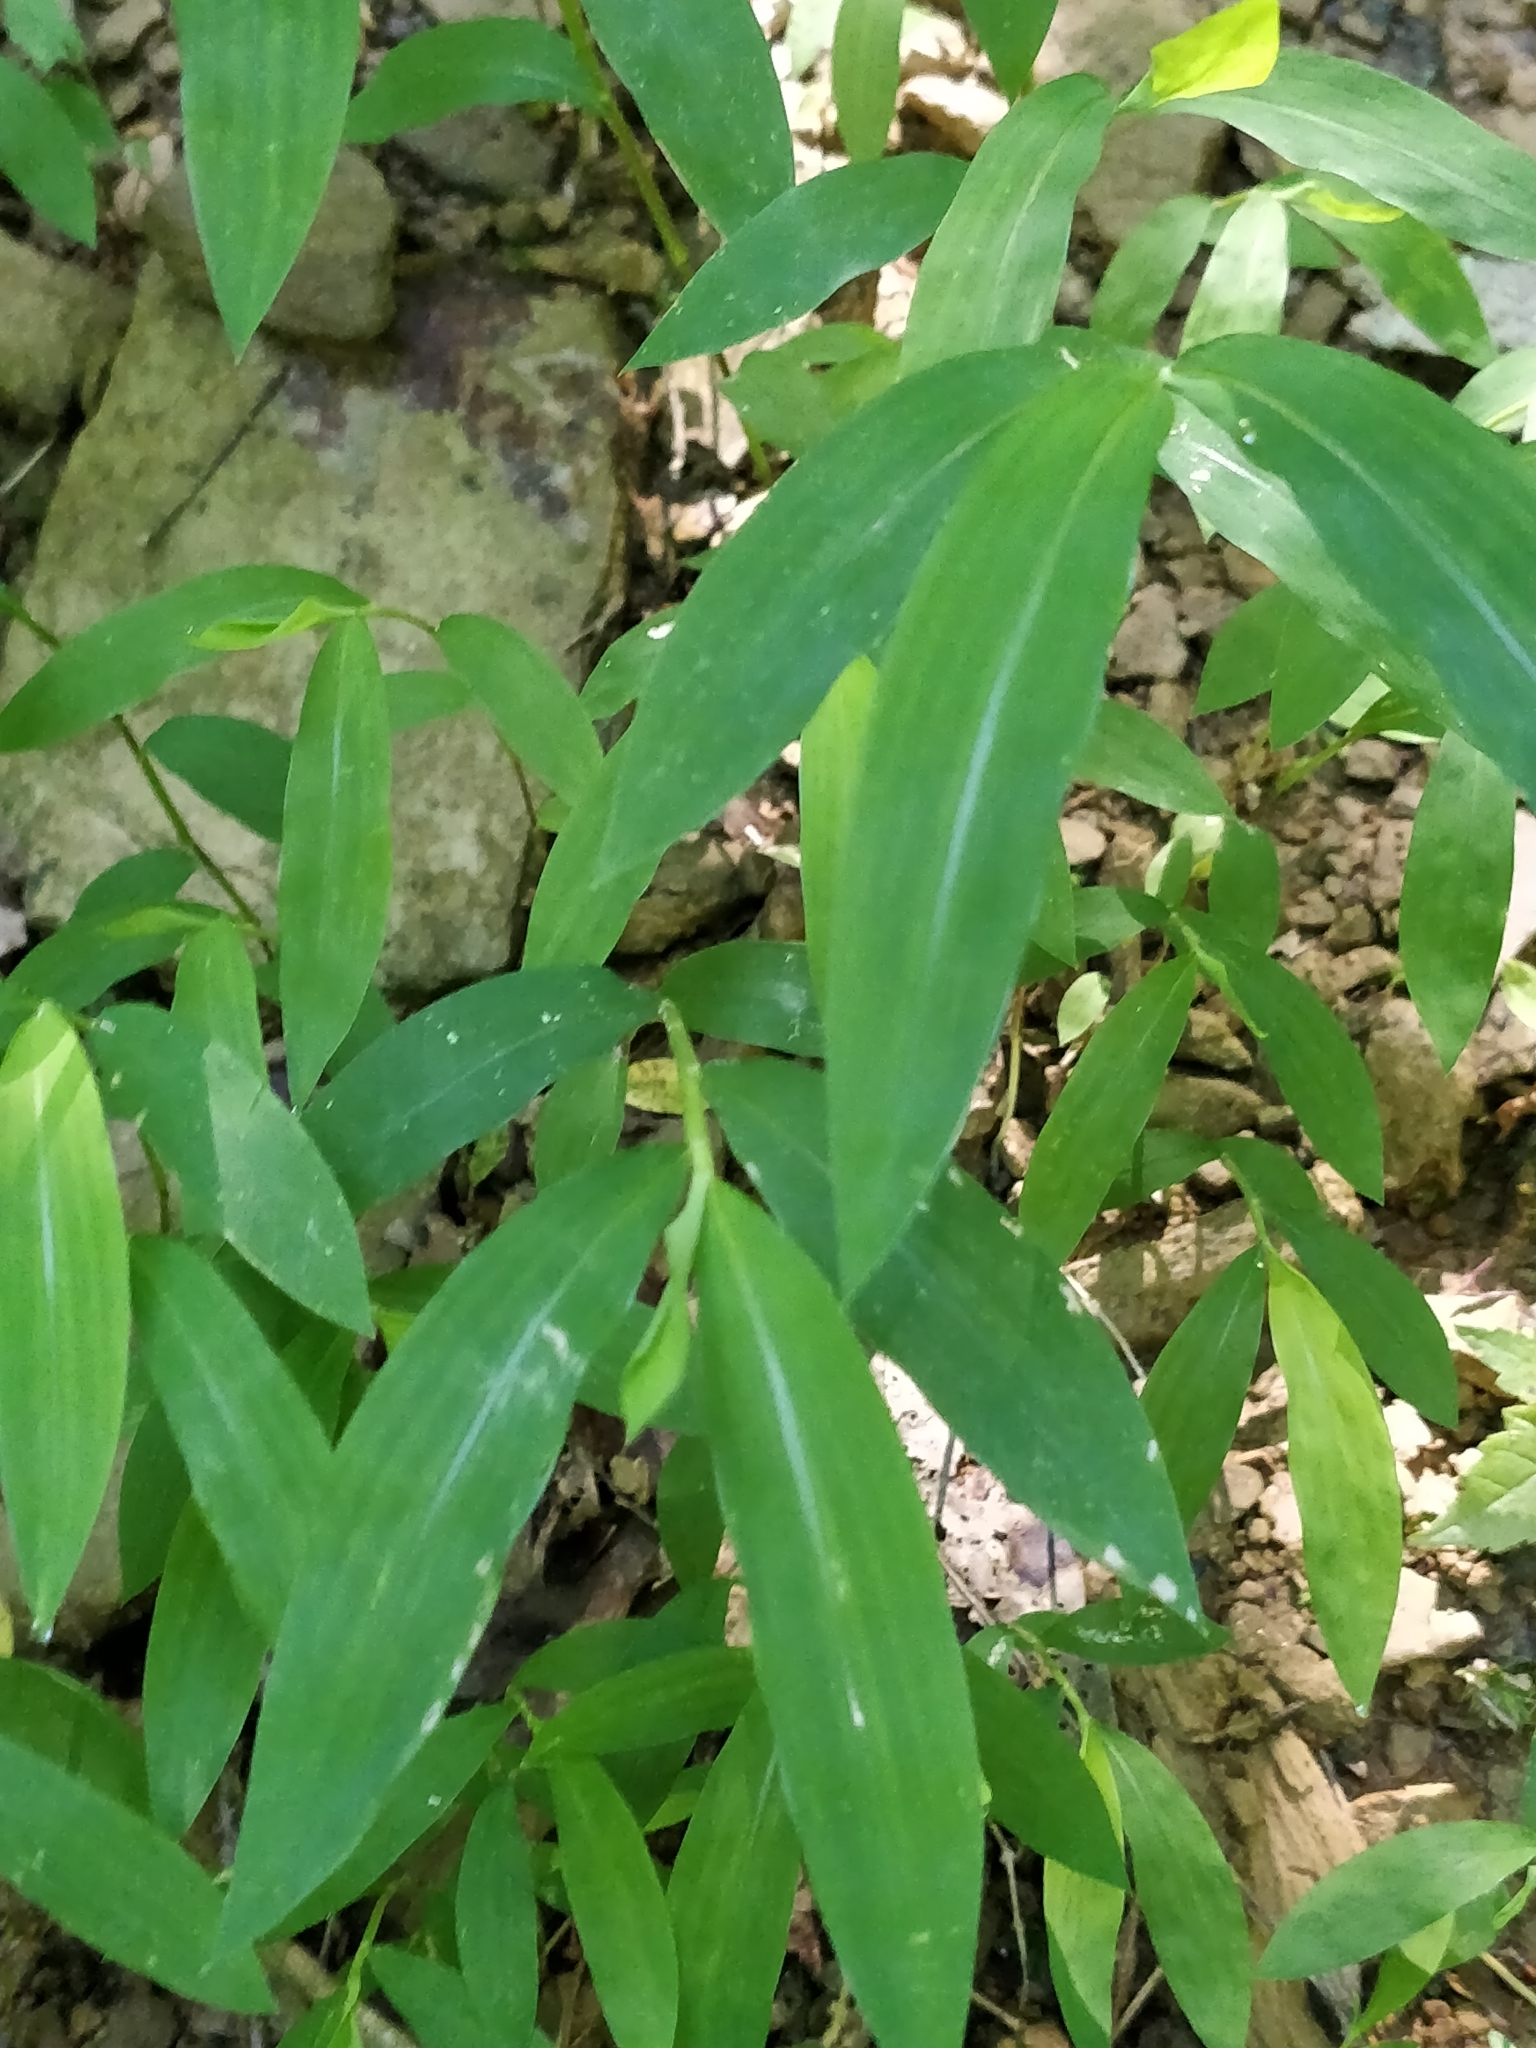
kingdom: Plantae
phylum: Tracheophyta
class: Liliopsida
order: Poales
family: Poaceae
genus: Microstegium
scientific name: Microstegium vimineum
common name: Japanese stiltgrass
